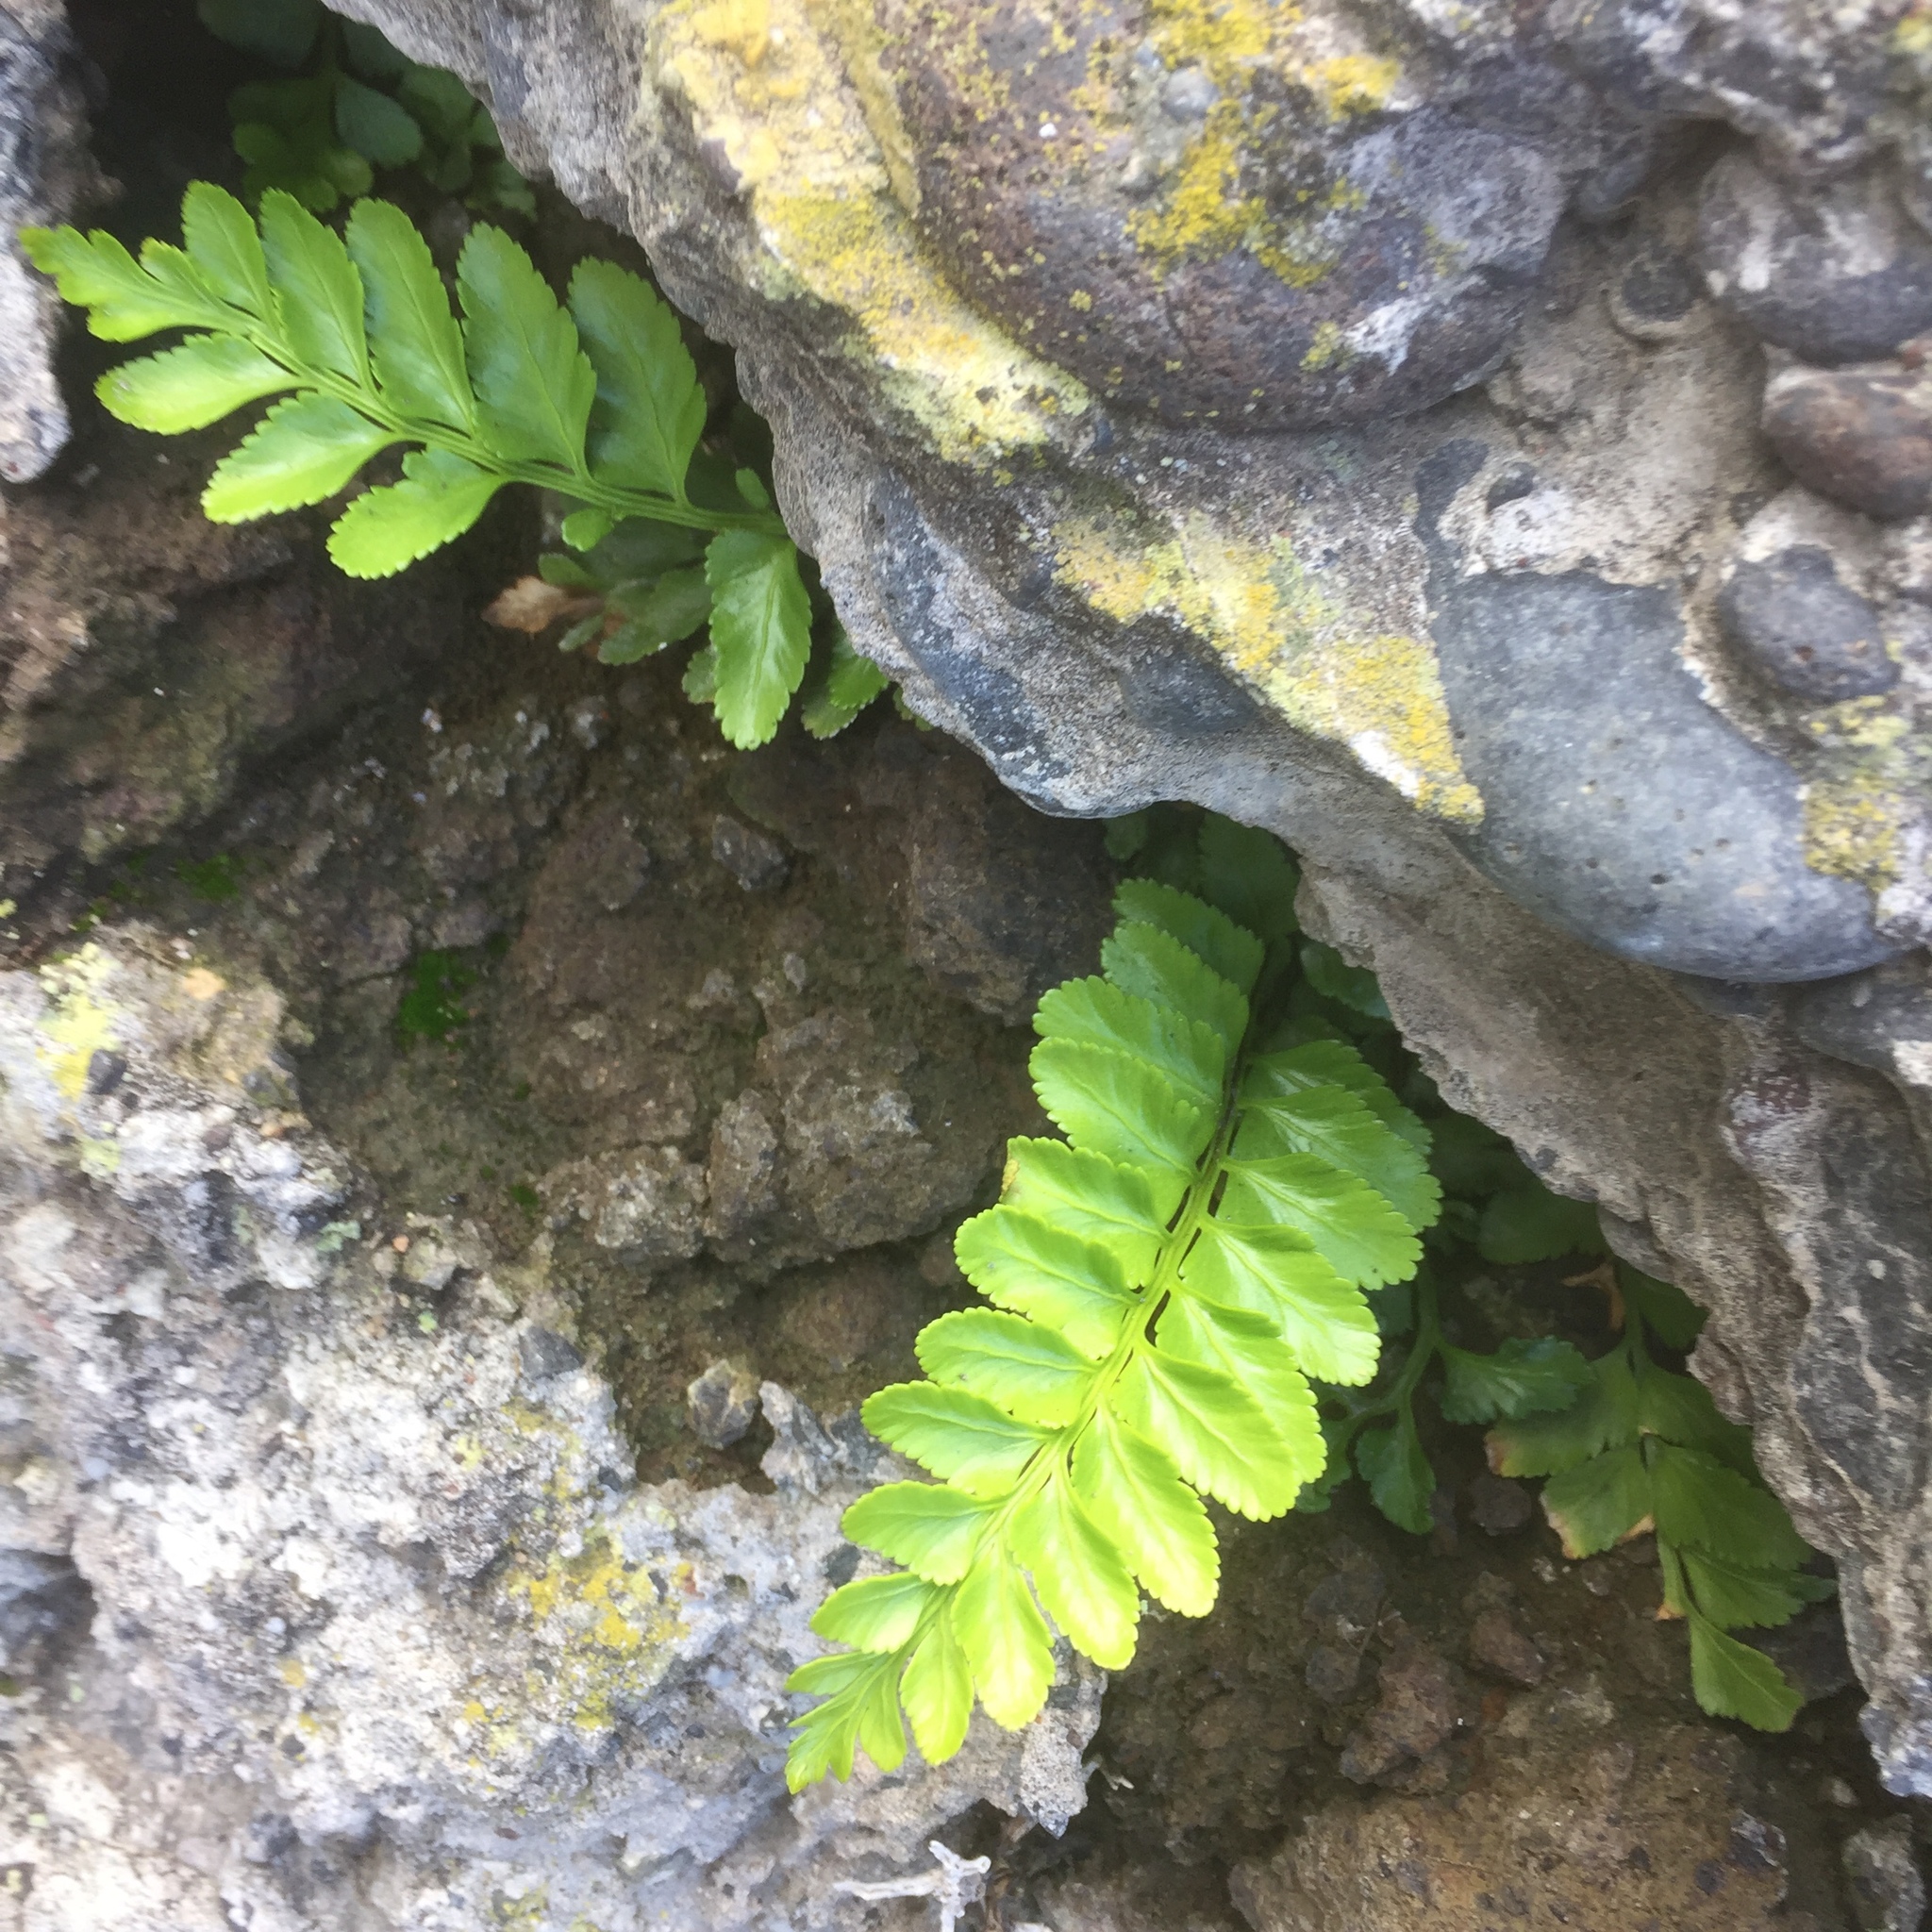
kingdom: Plantae
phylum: Tracheophyta
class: Polypodiopsida
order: Polypodiales
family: Aspleniaceae
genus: Asplenium
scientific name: Asplenium marinum
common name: Sea spleenwort
